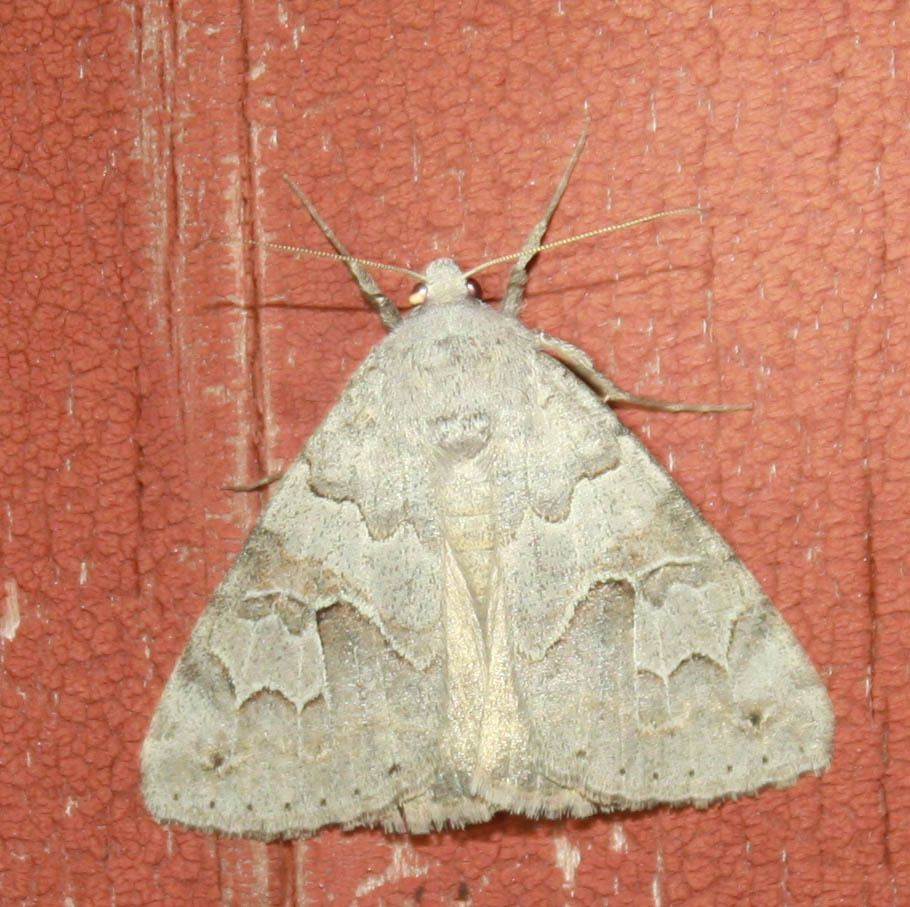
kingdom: Animalia
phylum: Arthropoda
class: Insecta
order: Lepidoptera
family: Erebidae
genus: Drasteria
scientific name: Drasteria scrupulosa
